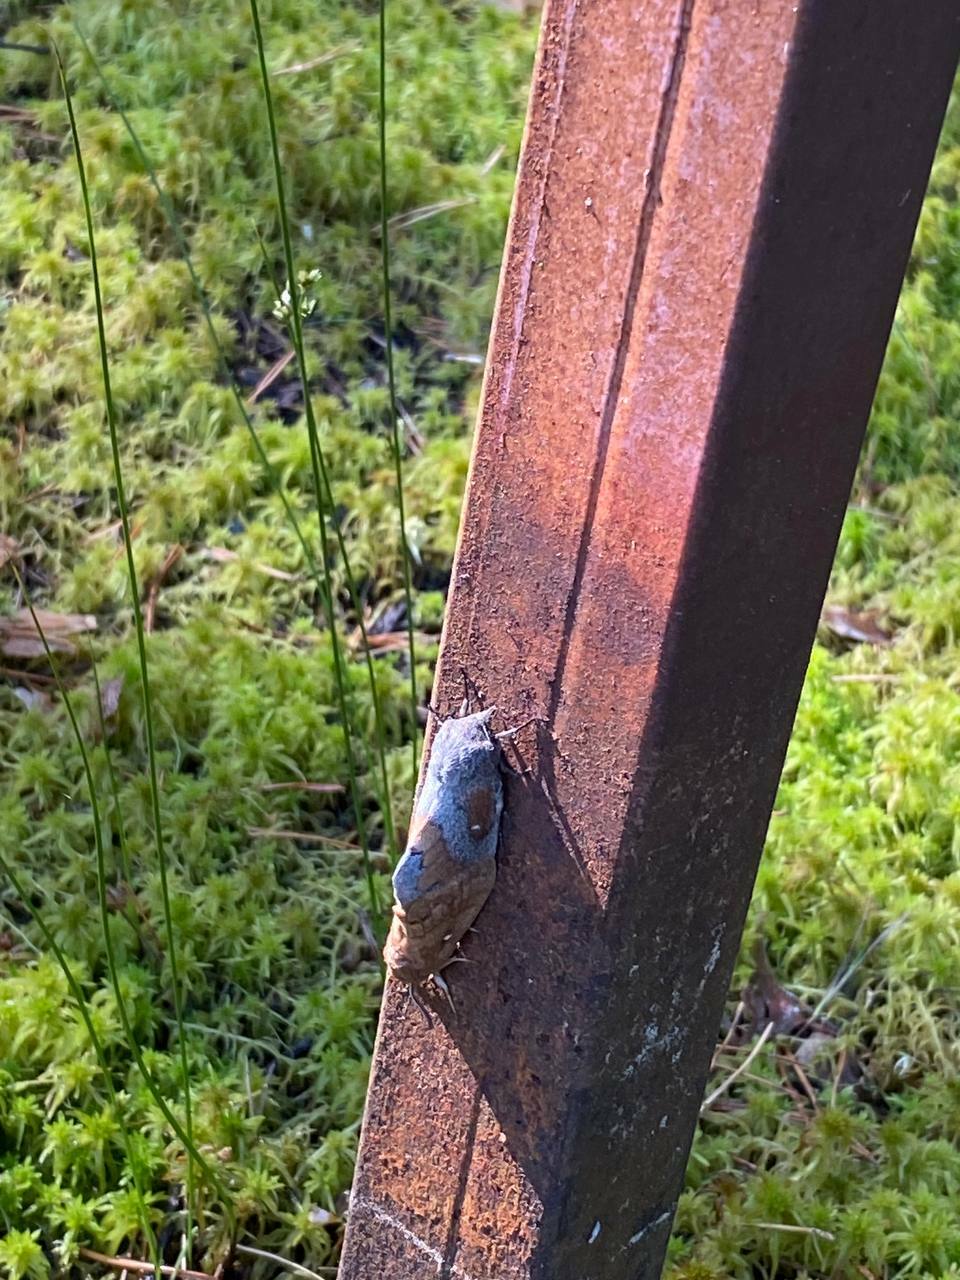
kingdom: Animalia
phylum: Arthropoda
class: Insecta
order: Lepidoptera
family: Lasiocampidae
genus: Dendrolimus
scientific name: Dendrolimus pini
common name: Pine-tree lappet
